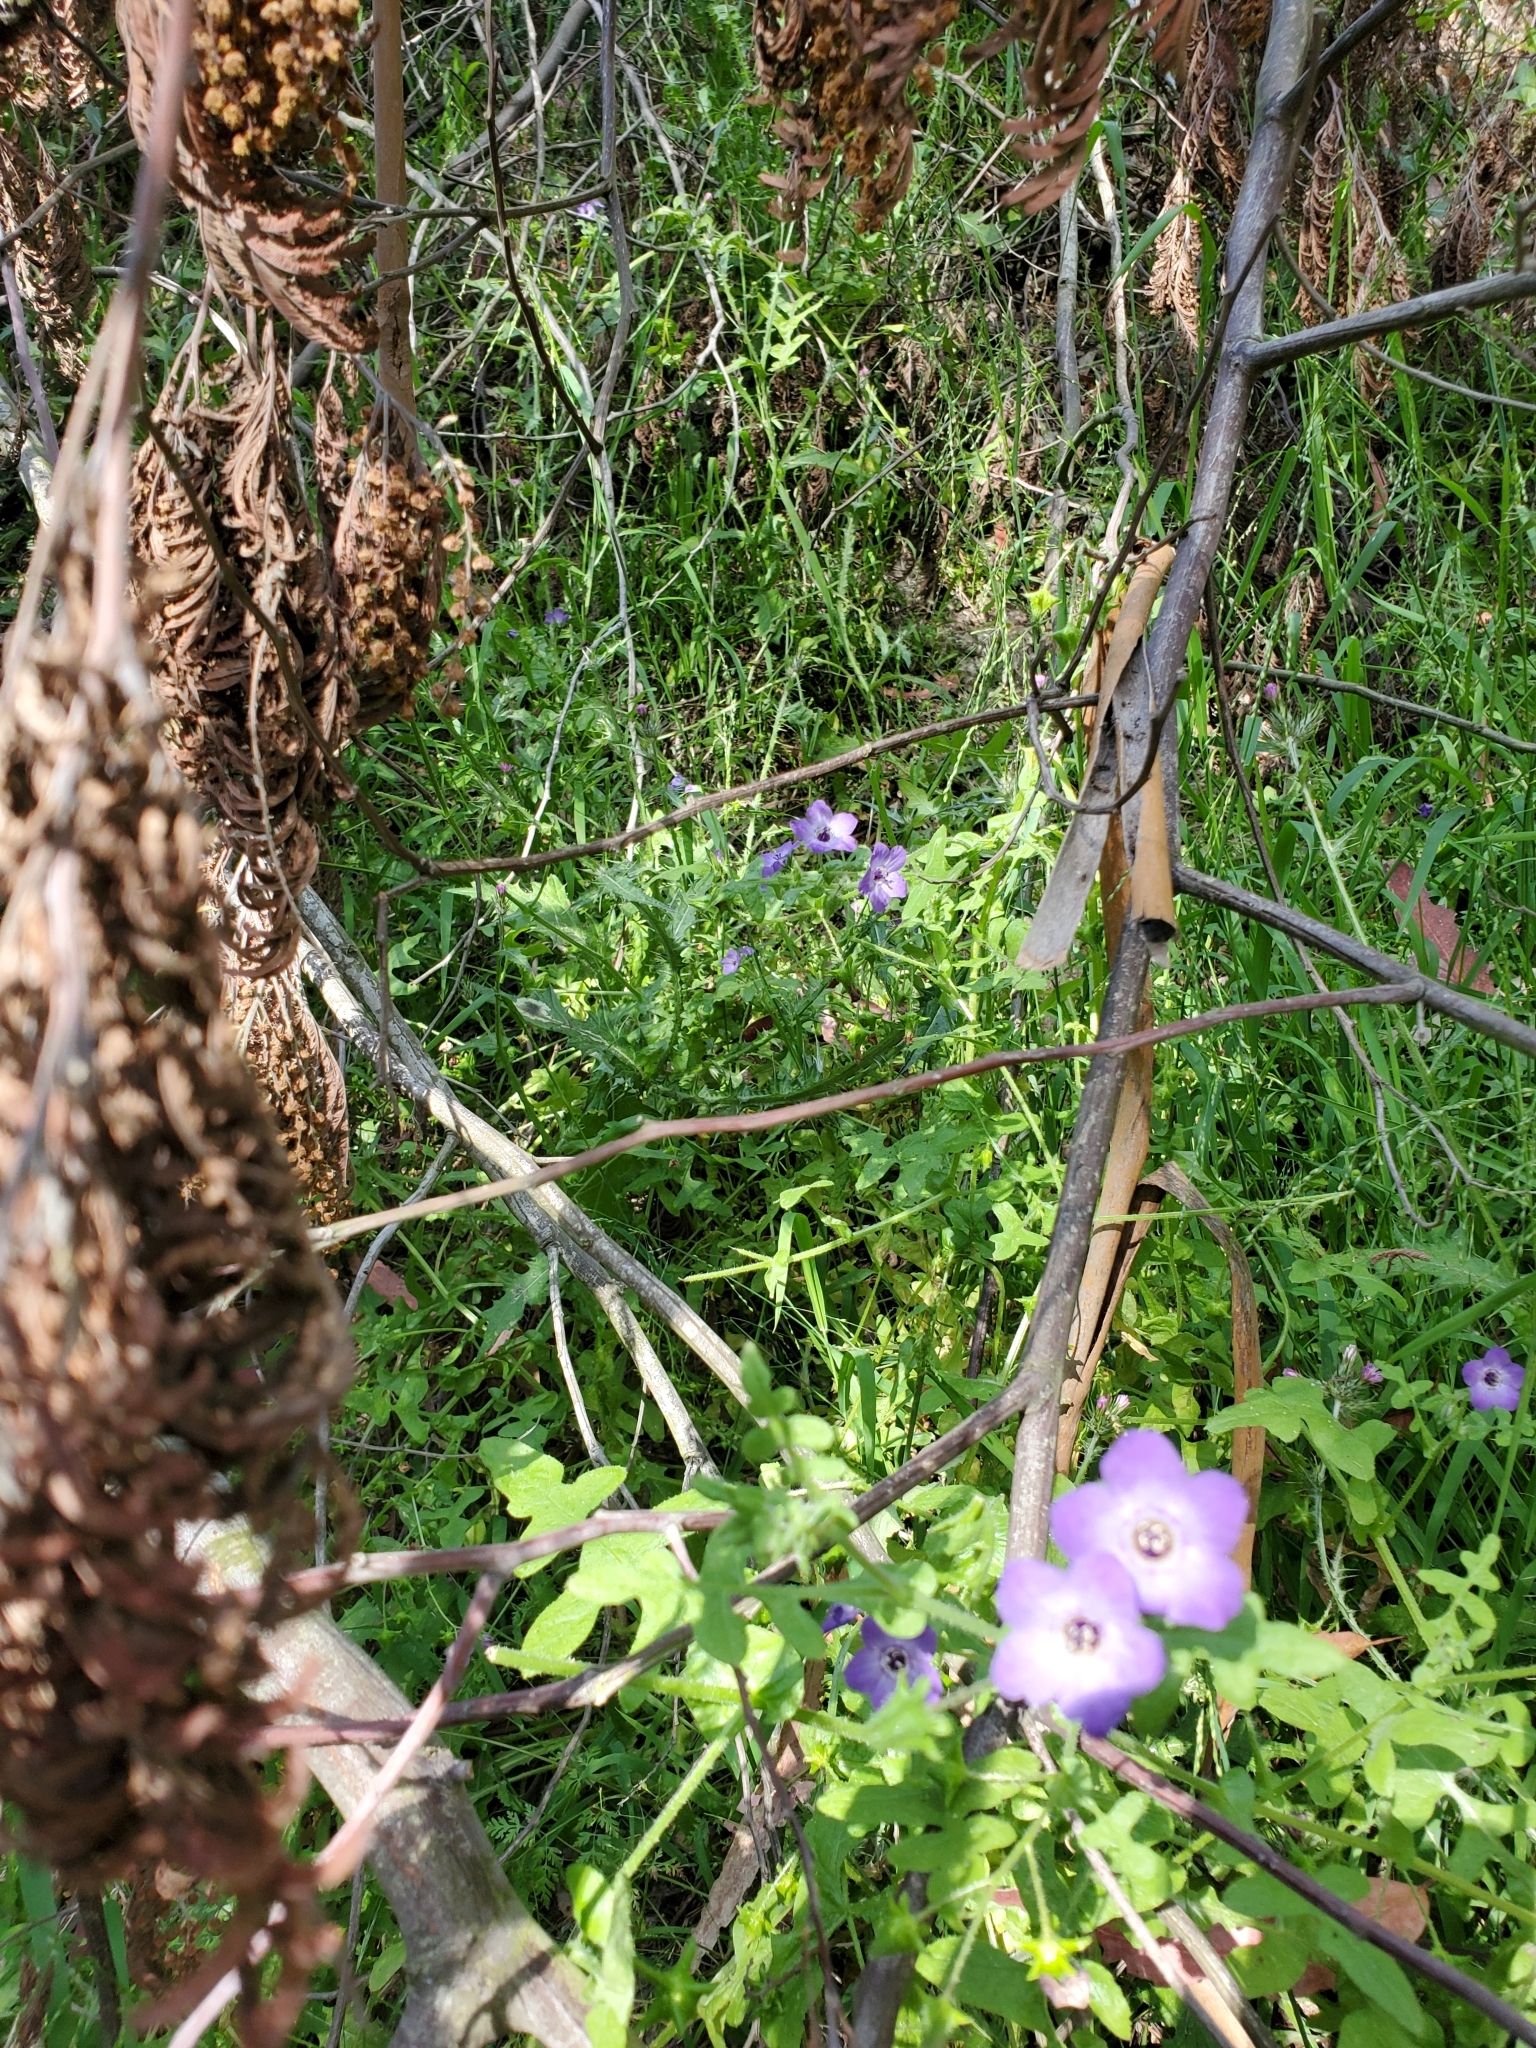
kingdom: Plantae
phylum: Tracheophyta
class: Magnoliopsida
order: Boraginales
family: Hydrophyllaceae
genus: Pholistoma
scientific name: Pholistoma auritum
